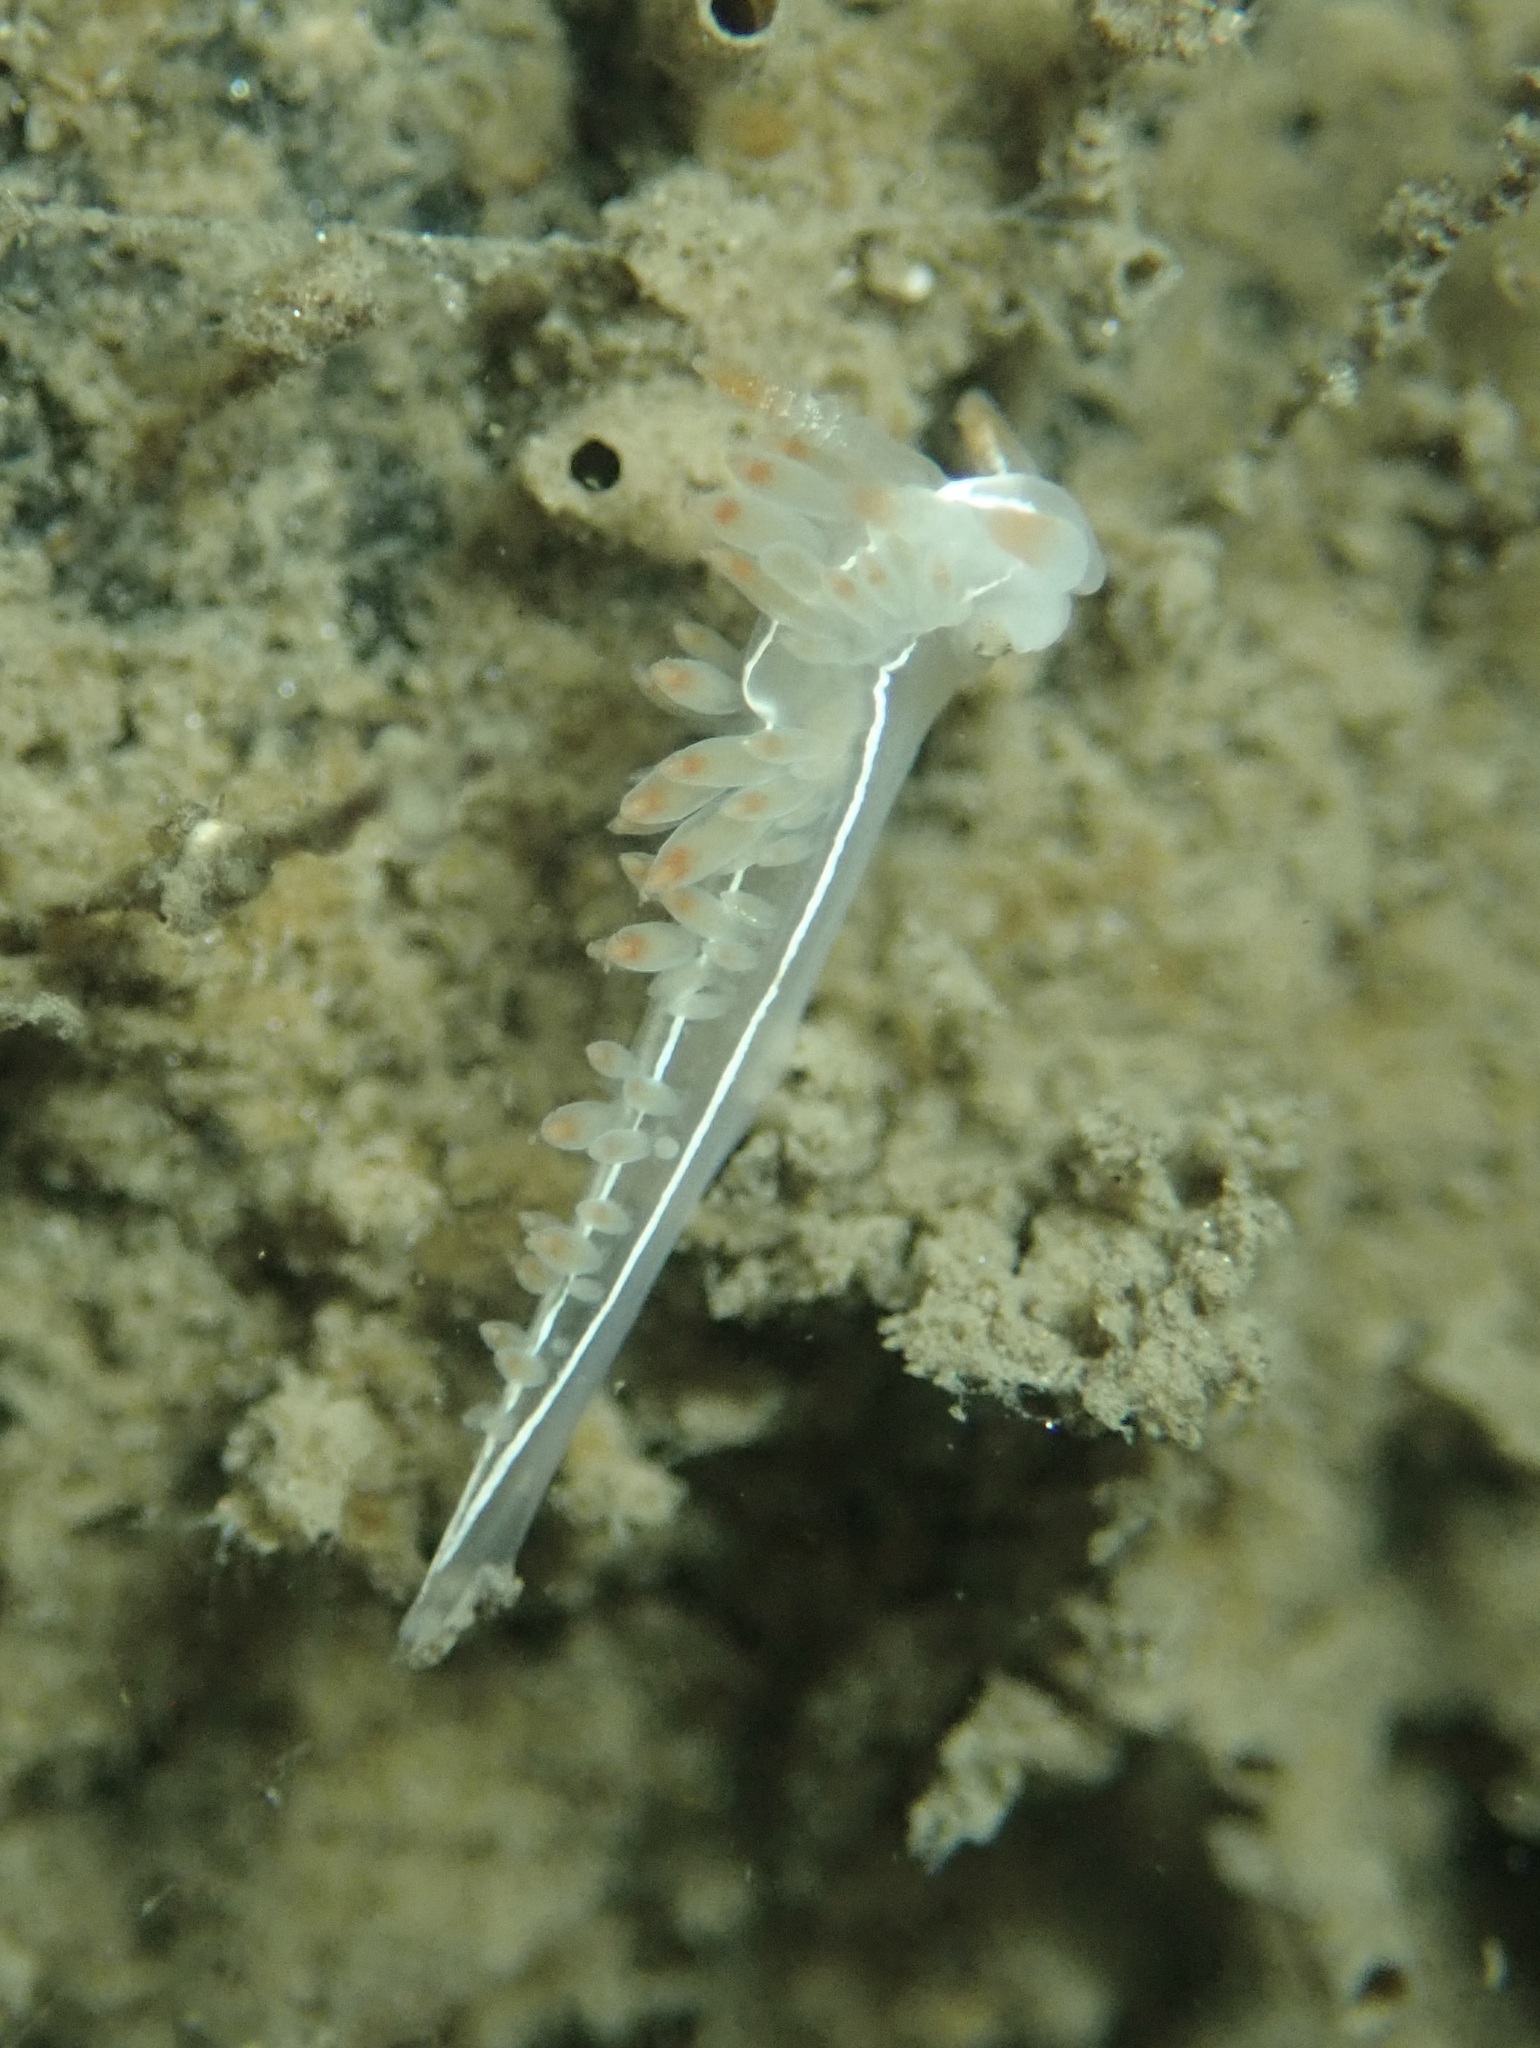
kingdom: Animalia
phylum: Mollusca
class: Gastropoda
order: Nudibranchia
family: Coryphellidae
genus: Coryphella
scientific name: Coryphella trilineata
